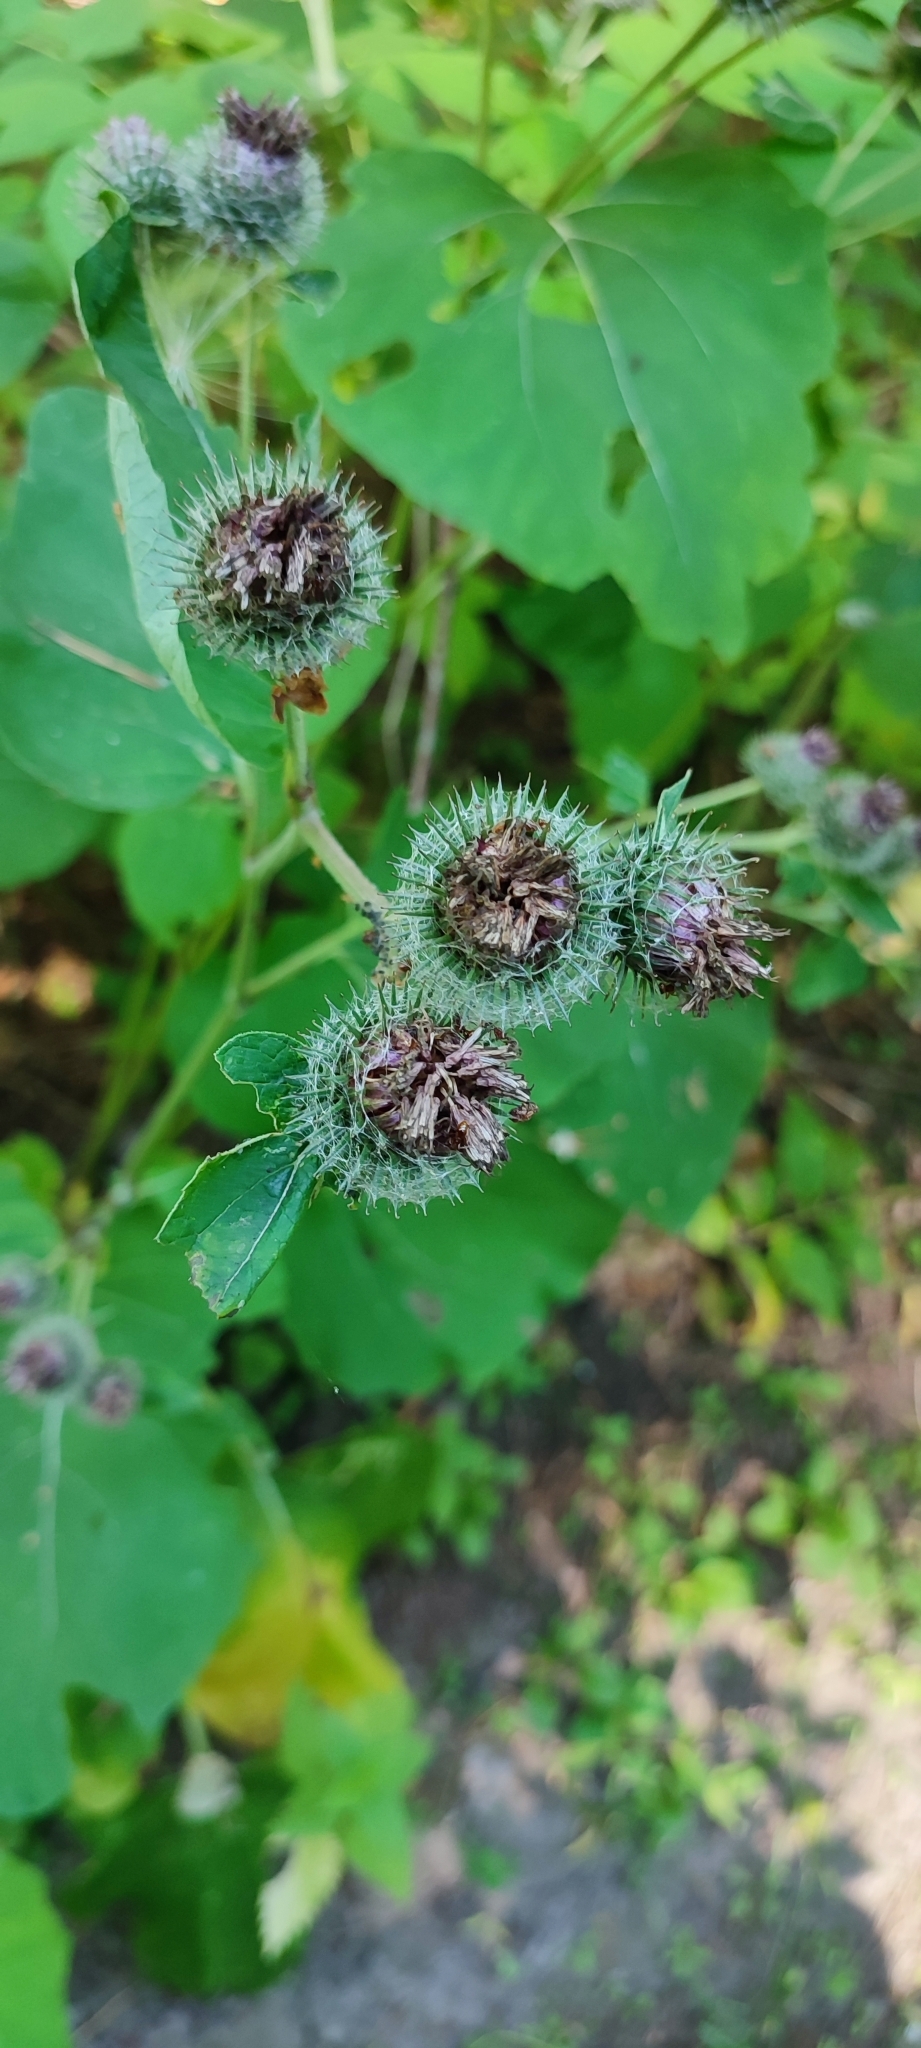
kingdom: Plantae
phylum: Tracheophyta
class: Magnoliopsida
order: Asterales
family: Asteraceae
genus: Arctium
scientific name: Arctium tomentosum
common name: Woolly burdock
